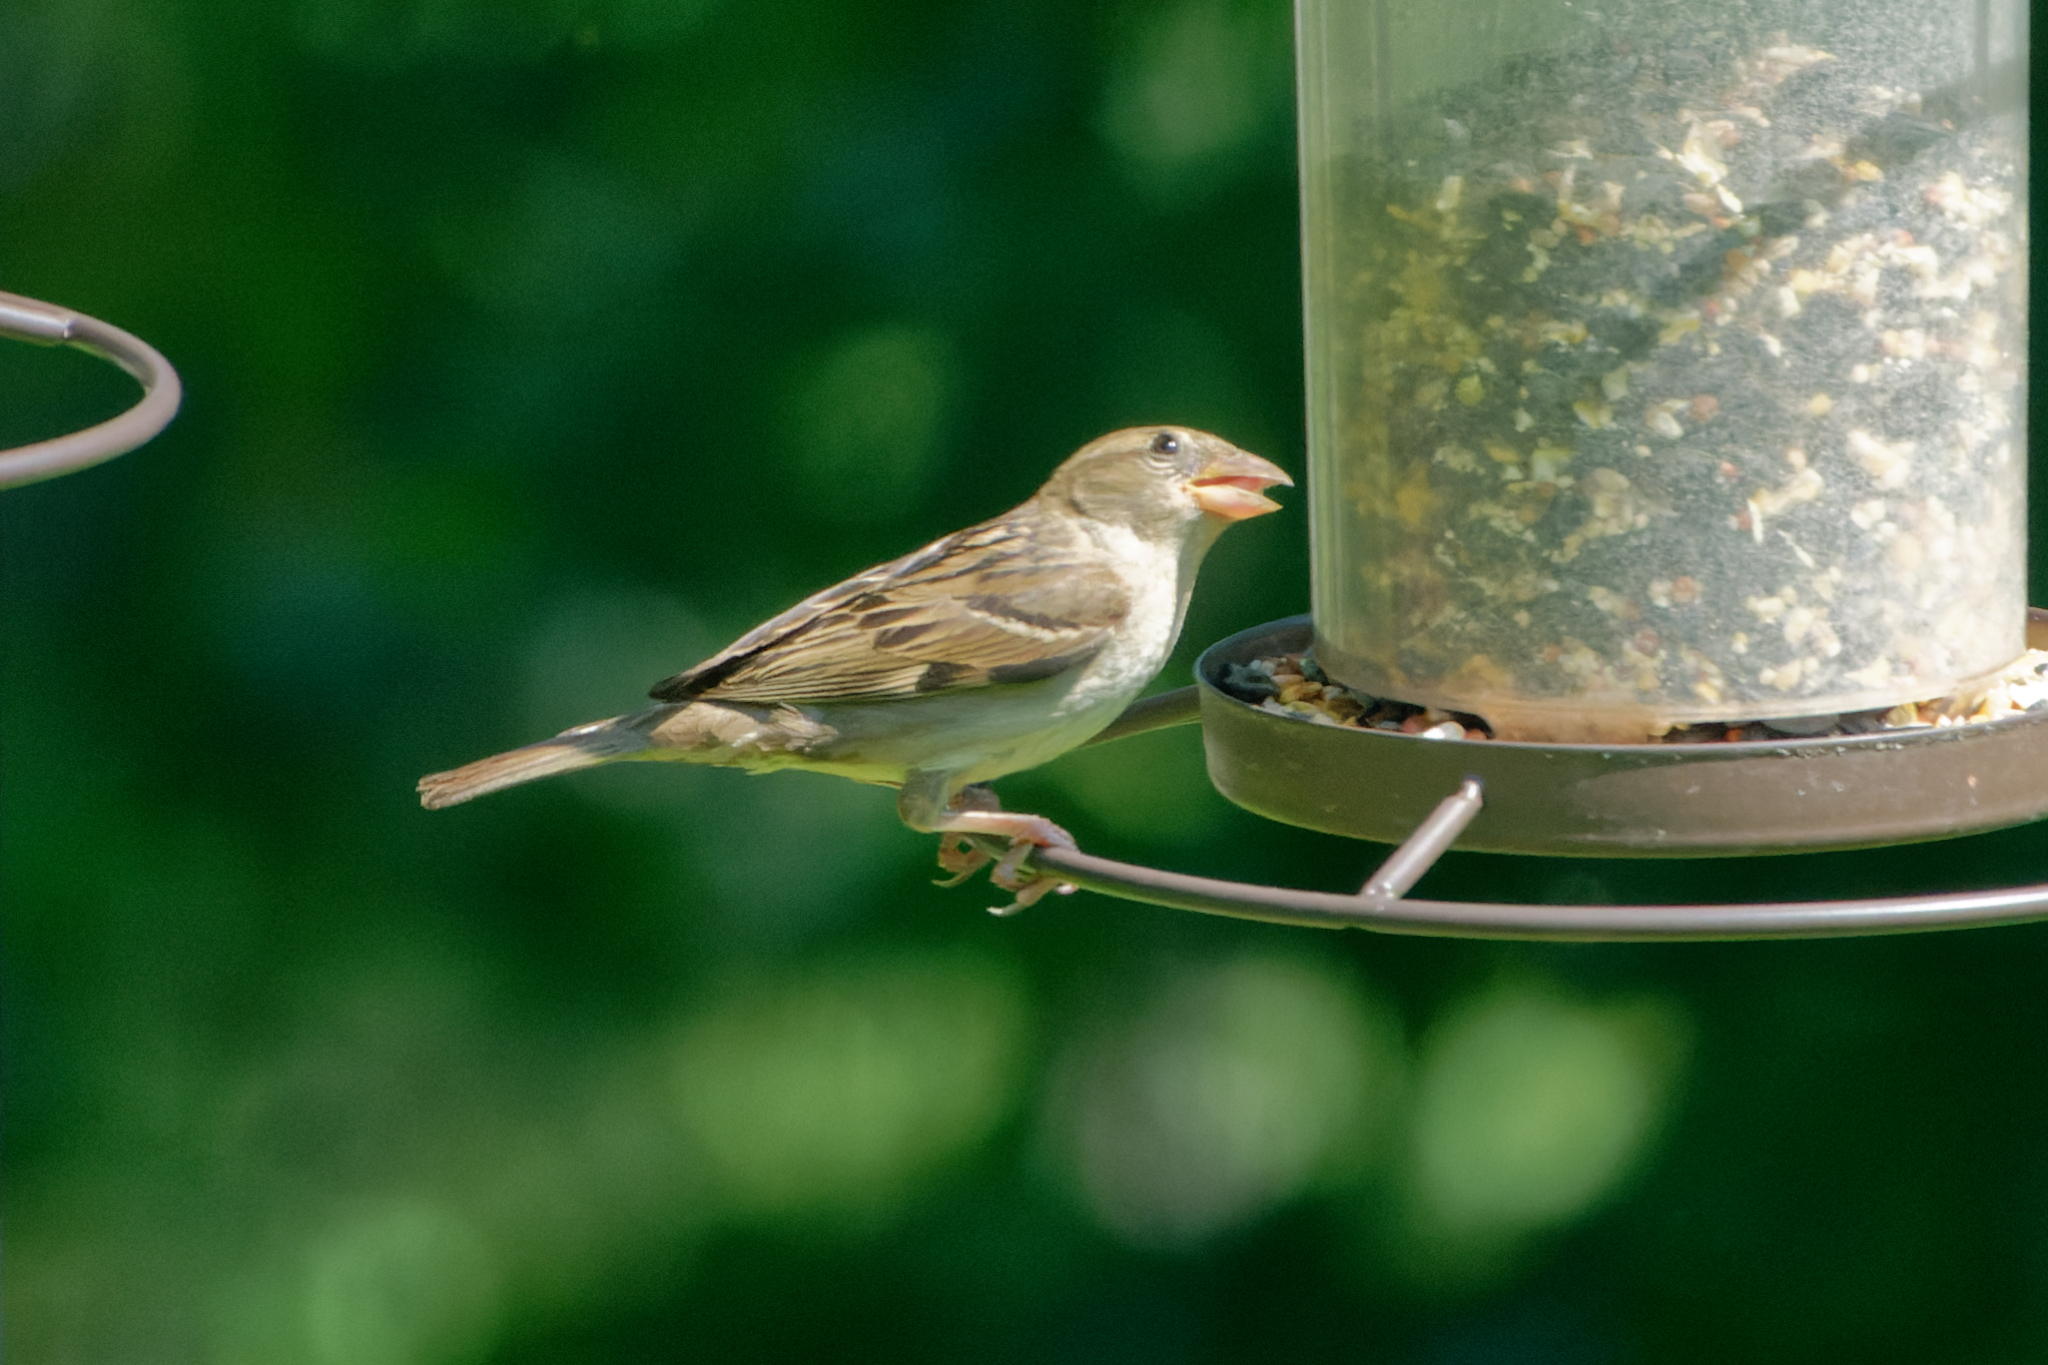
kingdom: Animalia
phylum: Chordata
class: Aves
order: Passeriformes
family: Passeridae
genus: Passer
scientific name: Passer domesticus
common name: House sparrow
